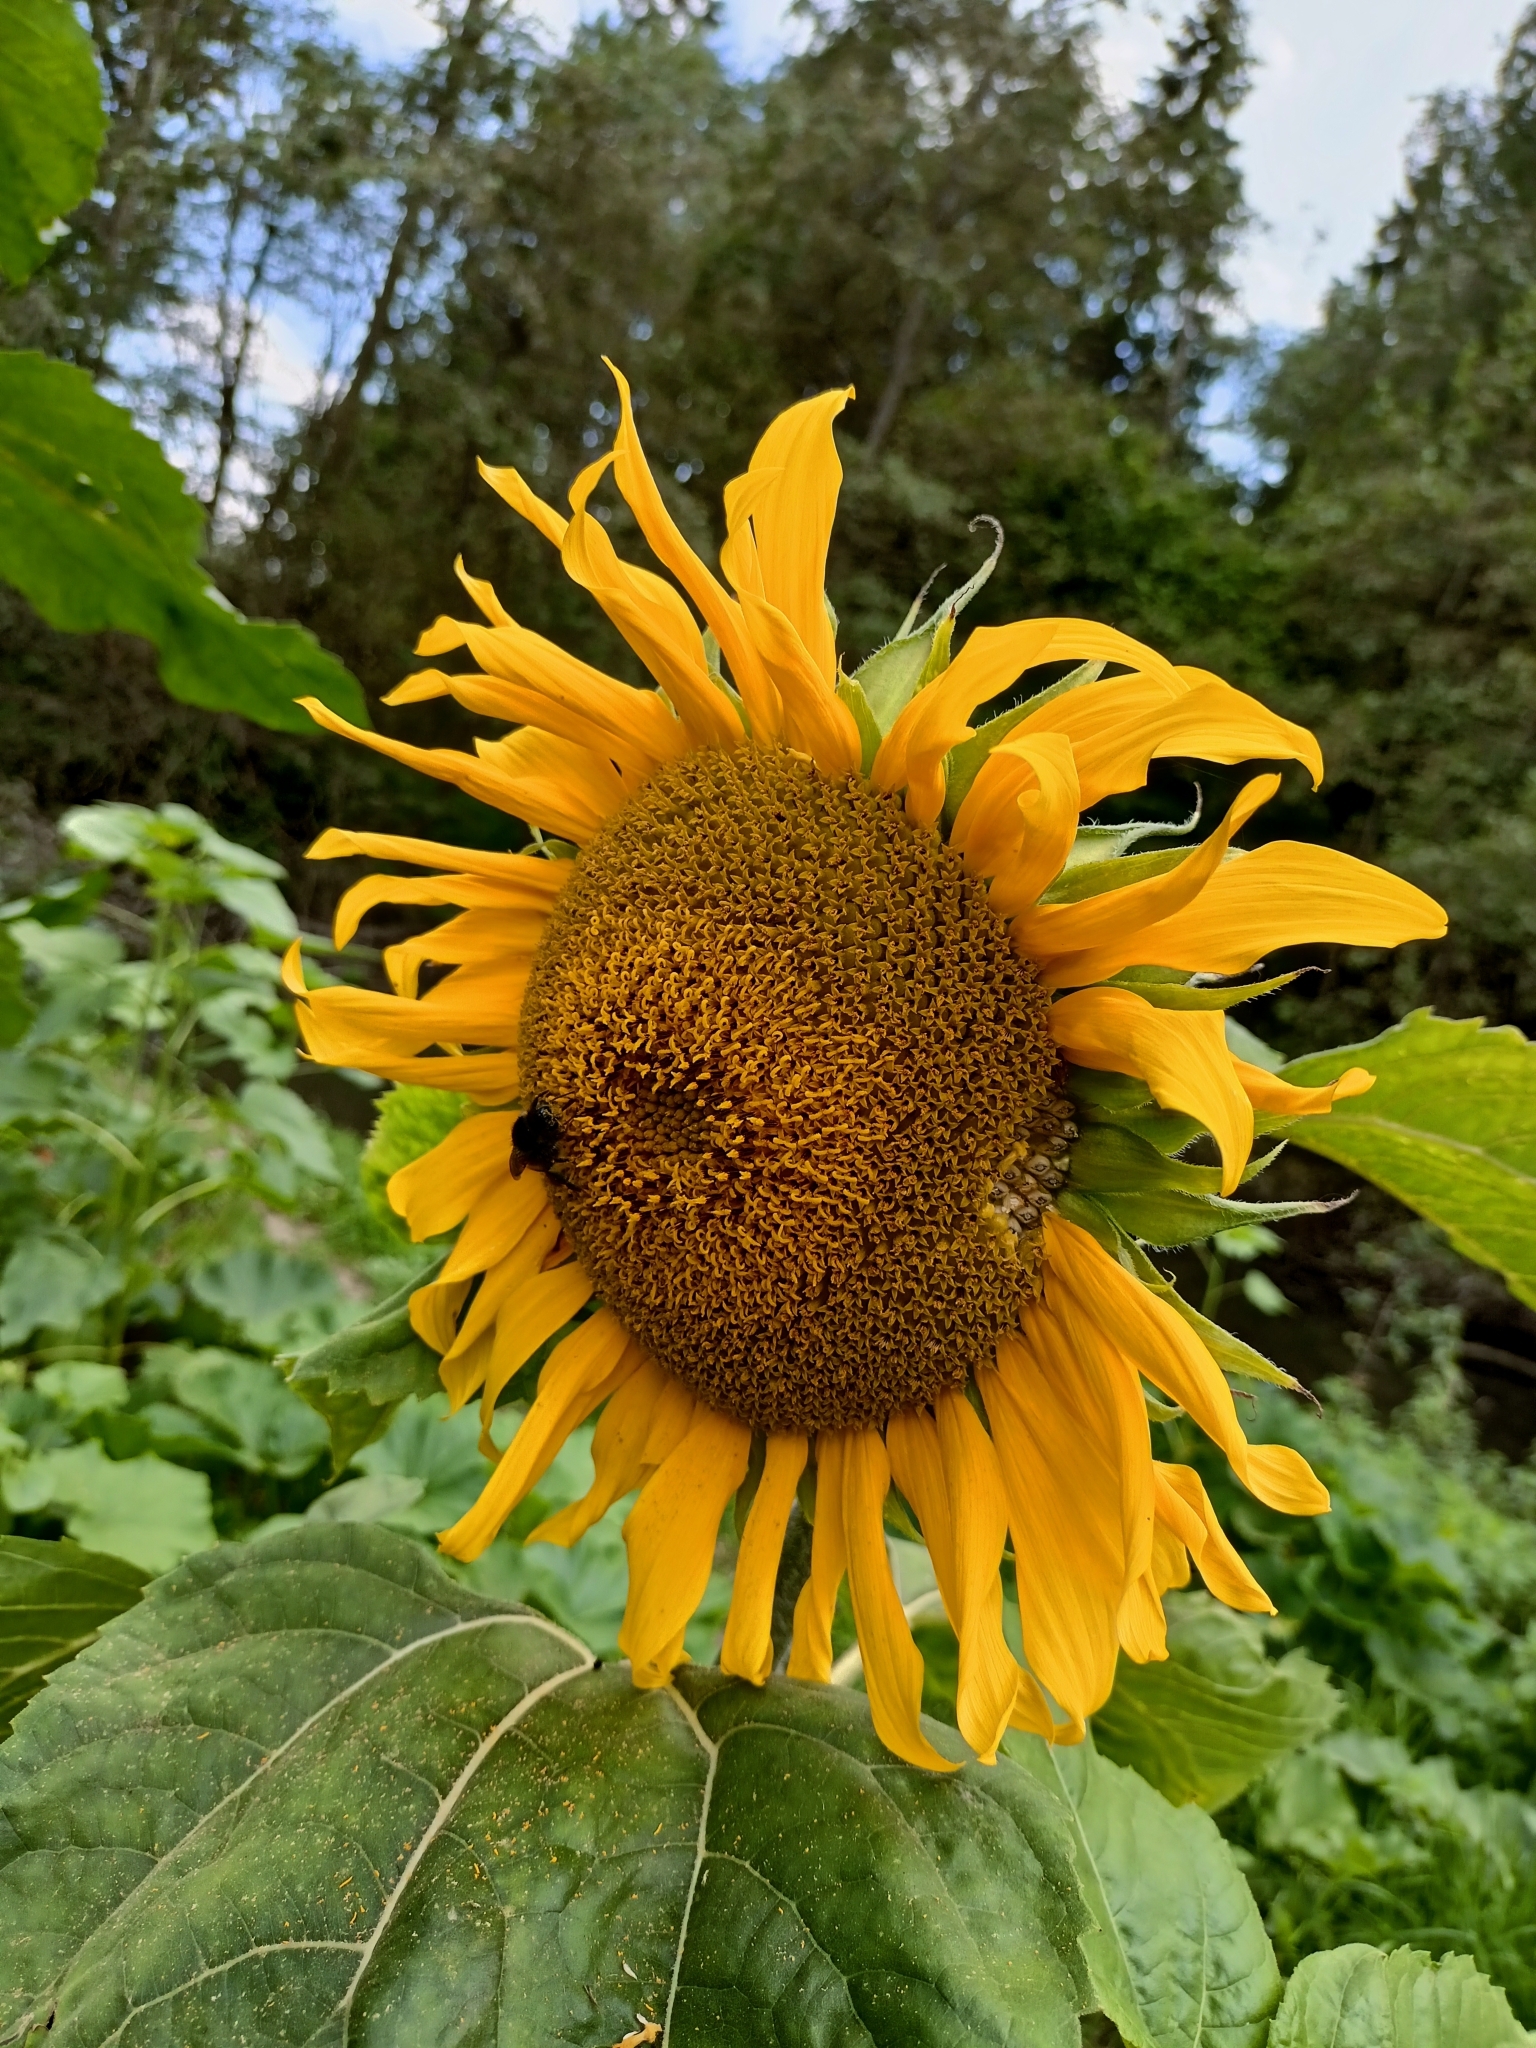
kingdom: Plantae
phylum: Tracheophyta
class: Magnoliopsida
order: Asterales
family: Asteraceae
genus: Helianthus
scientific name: Helianthus annuus
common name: Sunflower
